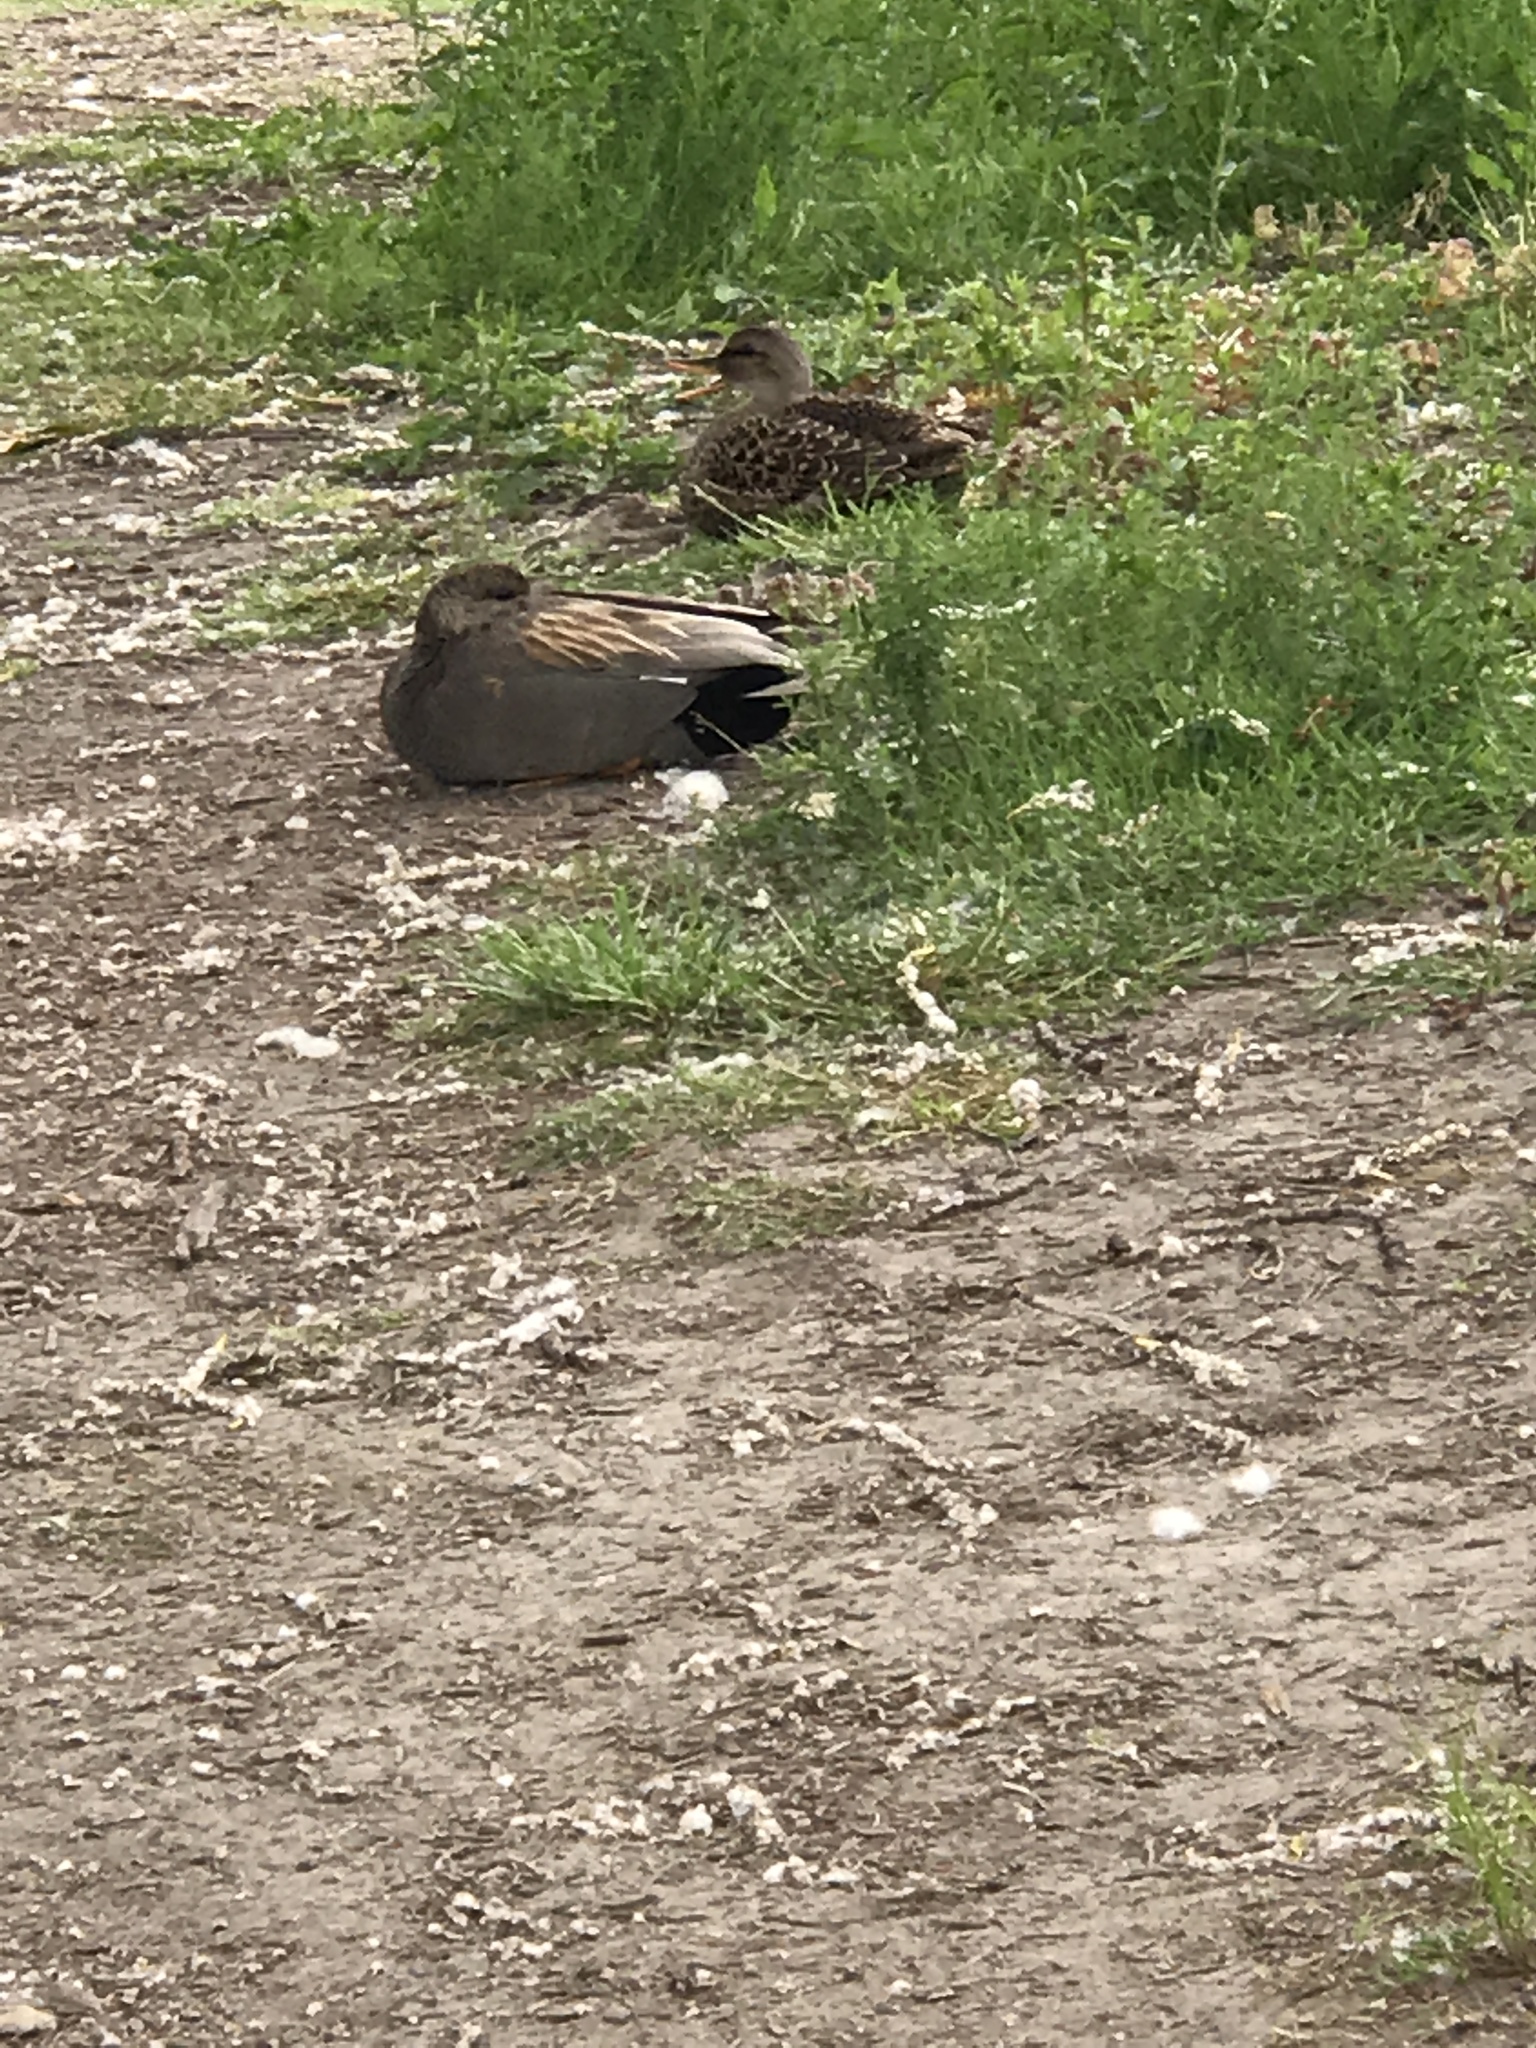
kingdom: Animalia
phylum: Chordata
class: Aves
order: Anseriformes
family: Anatidae
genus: Mareca
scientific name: Mareca strepera
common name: Gadwall
